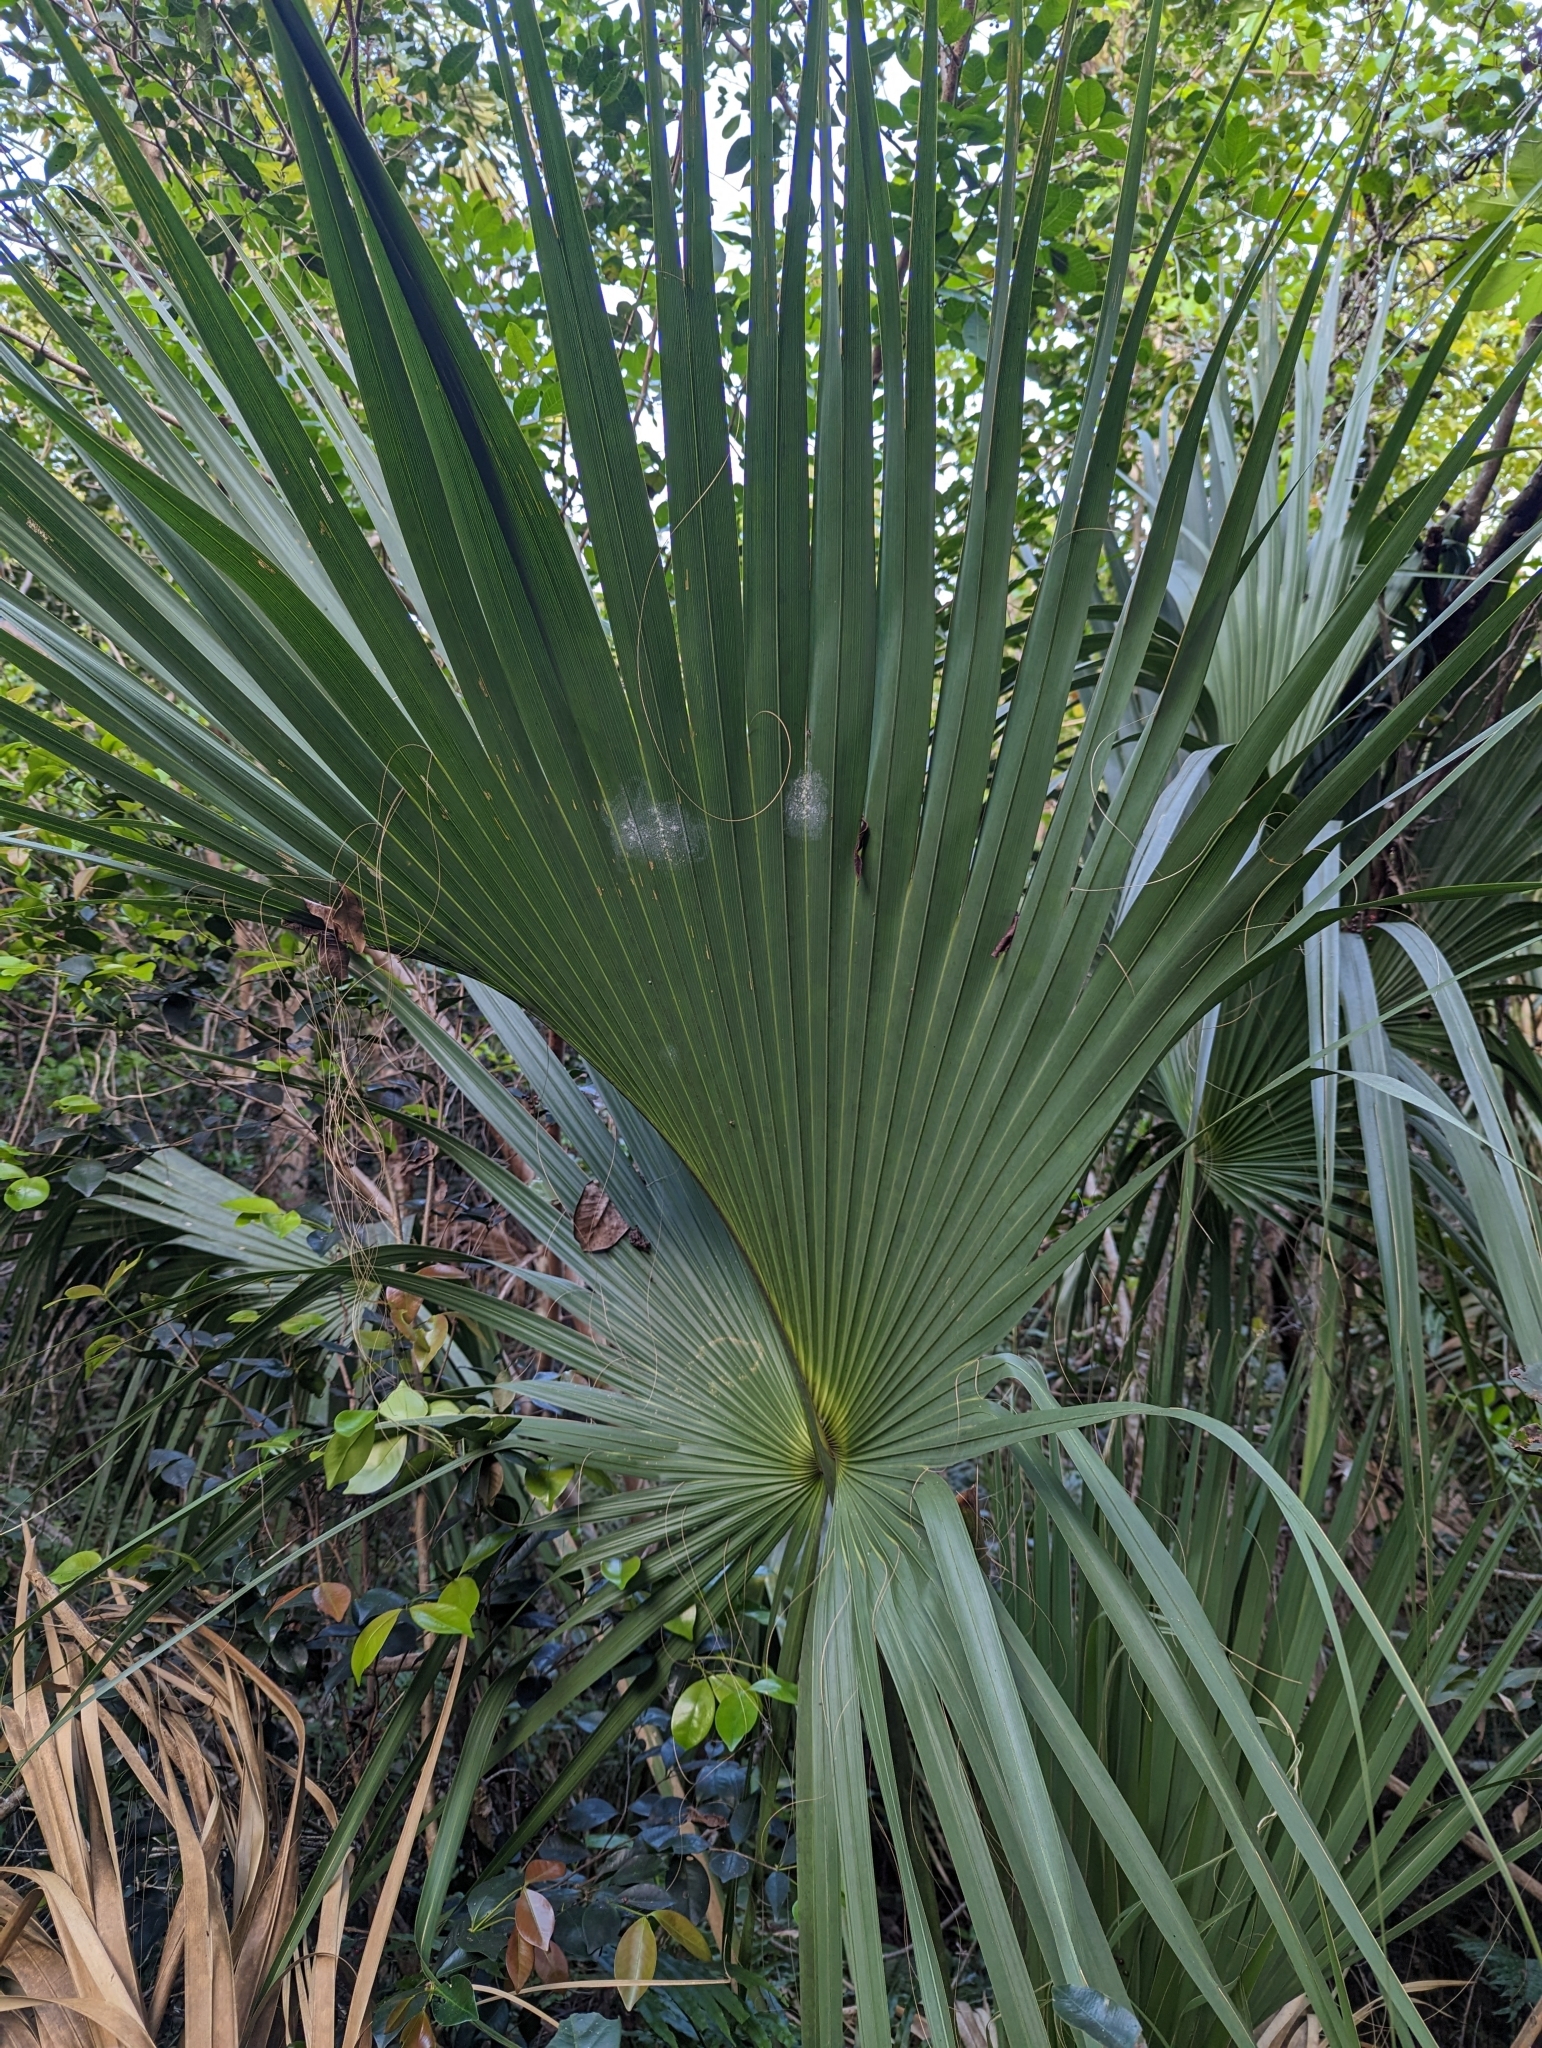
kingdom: Plantae
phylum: Tracheophyta
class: Liliopsida
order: Arecales
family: Arecaceae
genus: Sabal
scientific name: Sabal palmetto
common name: Blue palmetto
